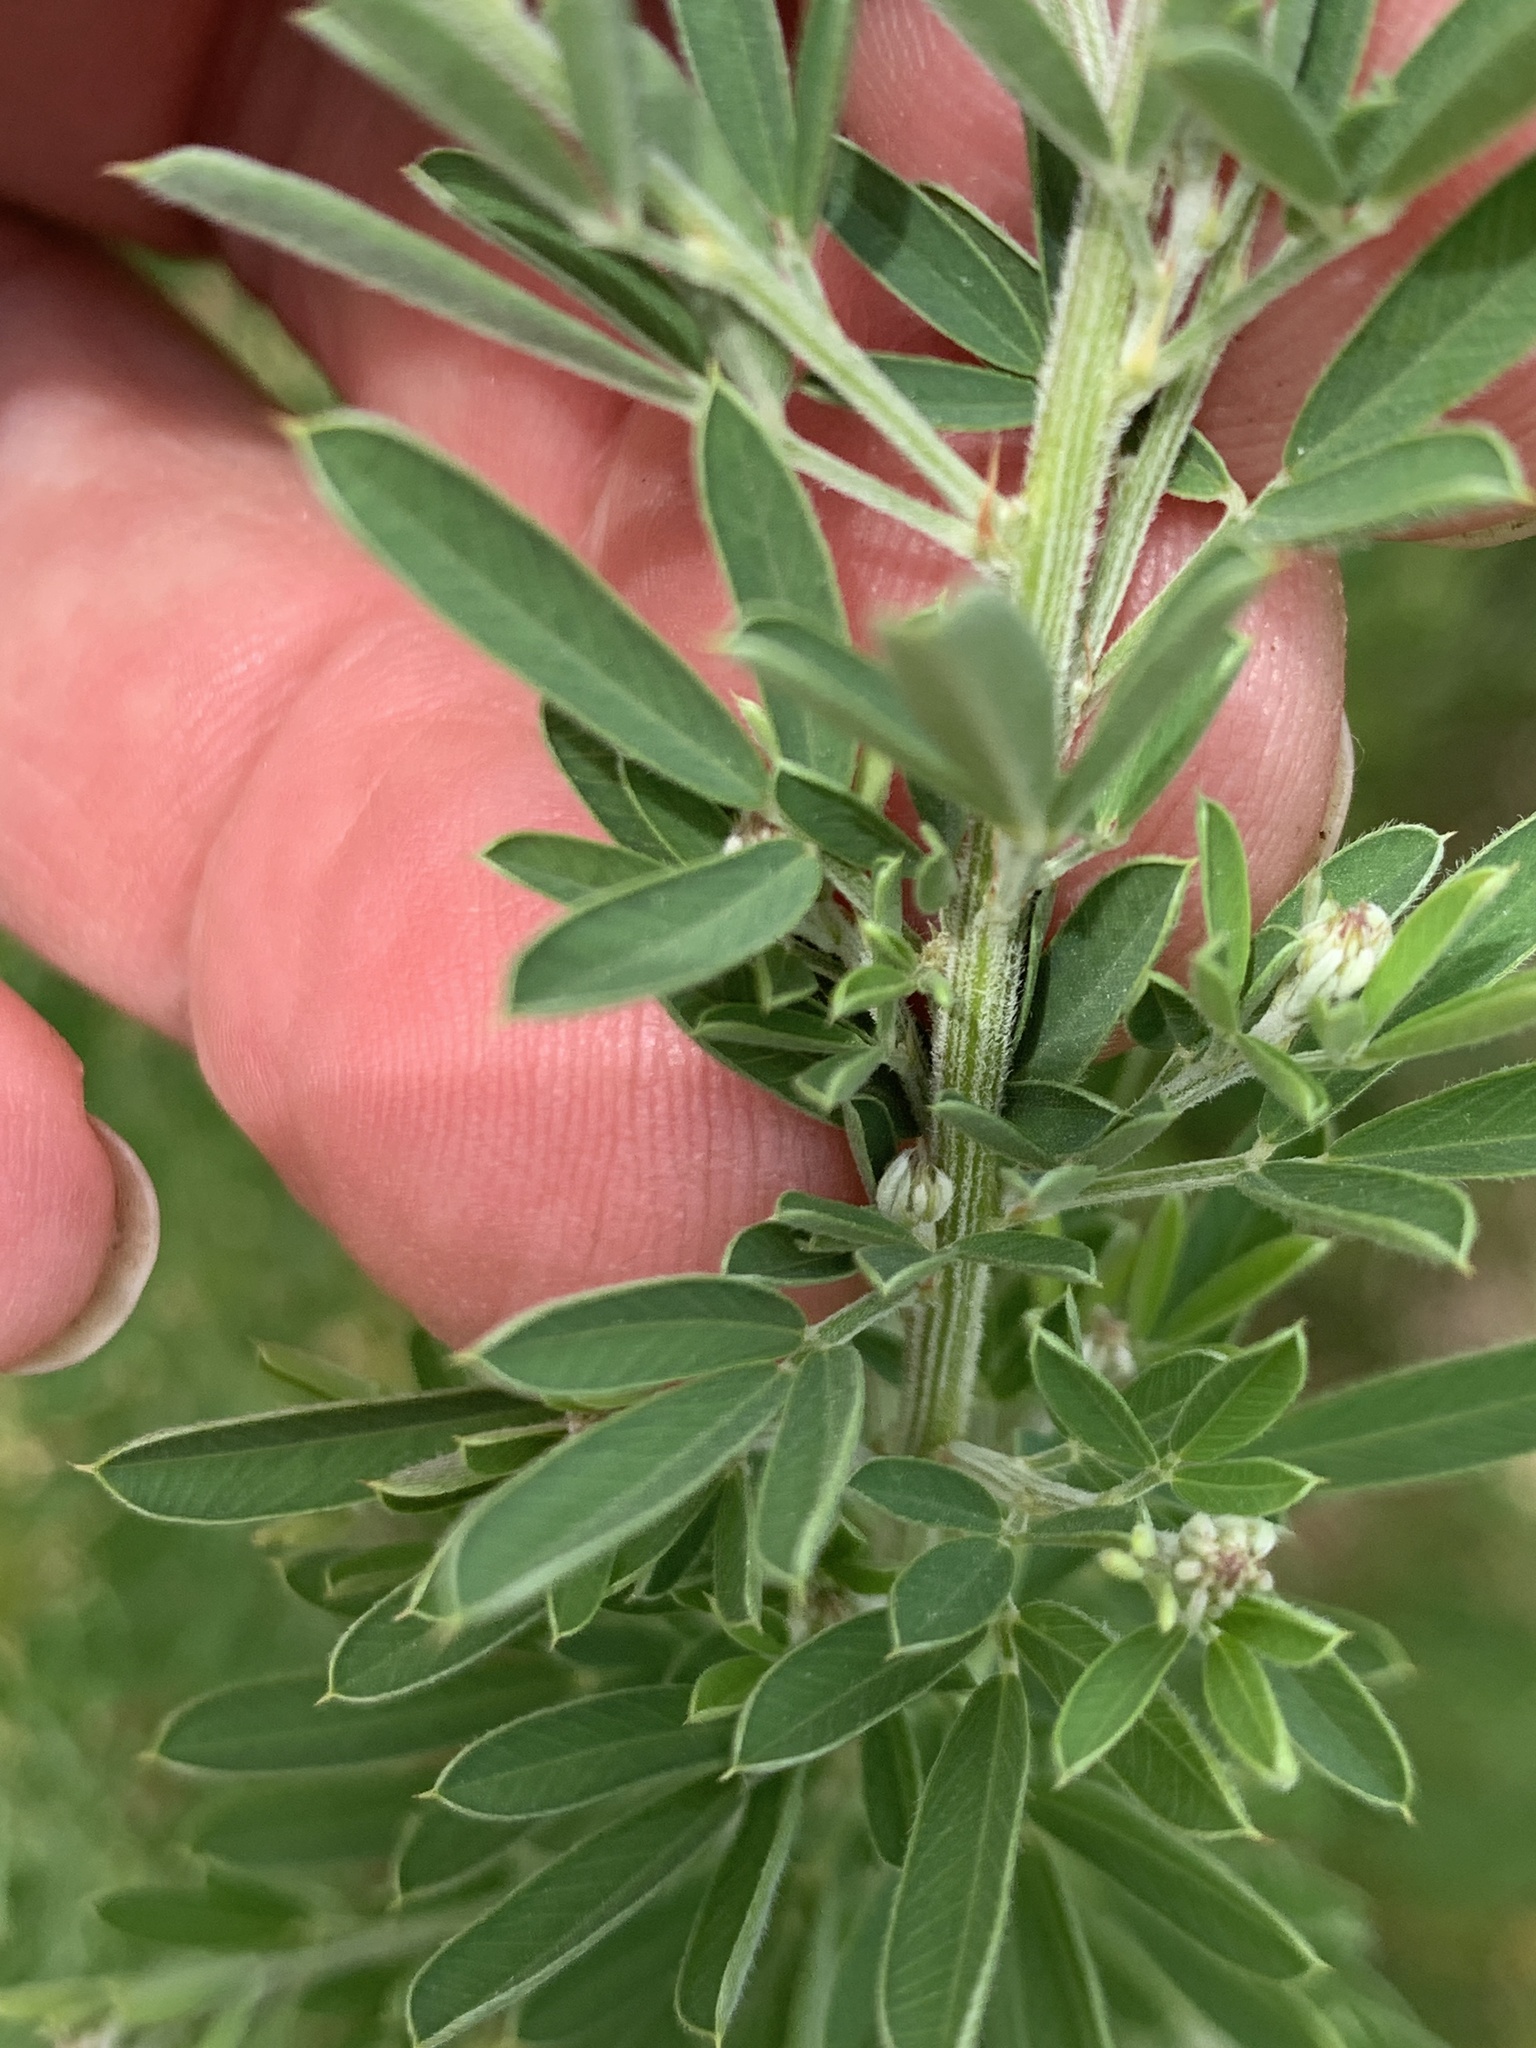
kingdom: Plantae
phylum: Tracheophyta
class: Magnoliopsida
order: Fabales
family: Fabaceae
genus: Lespedeza
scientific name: Lespedeza cuneata
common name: Chinese bush-clover
